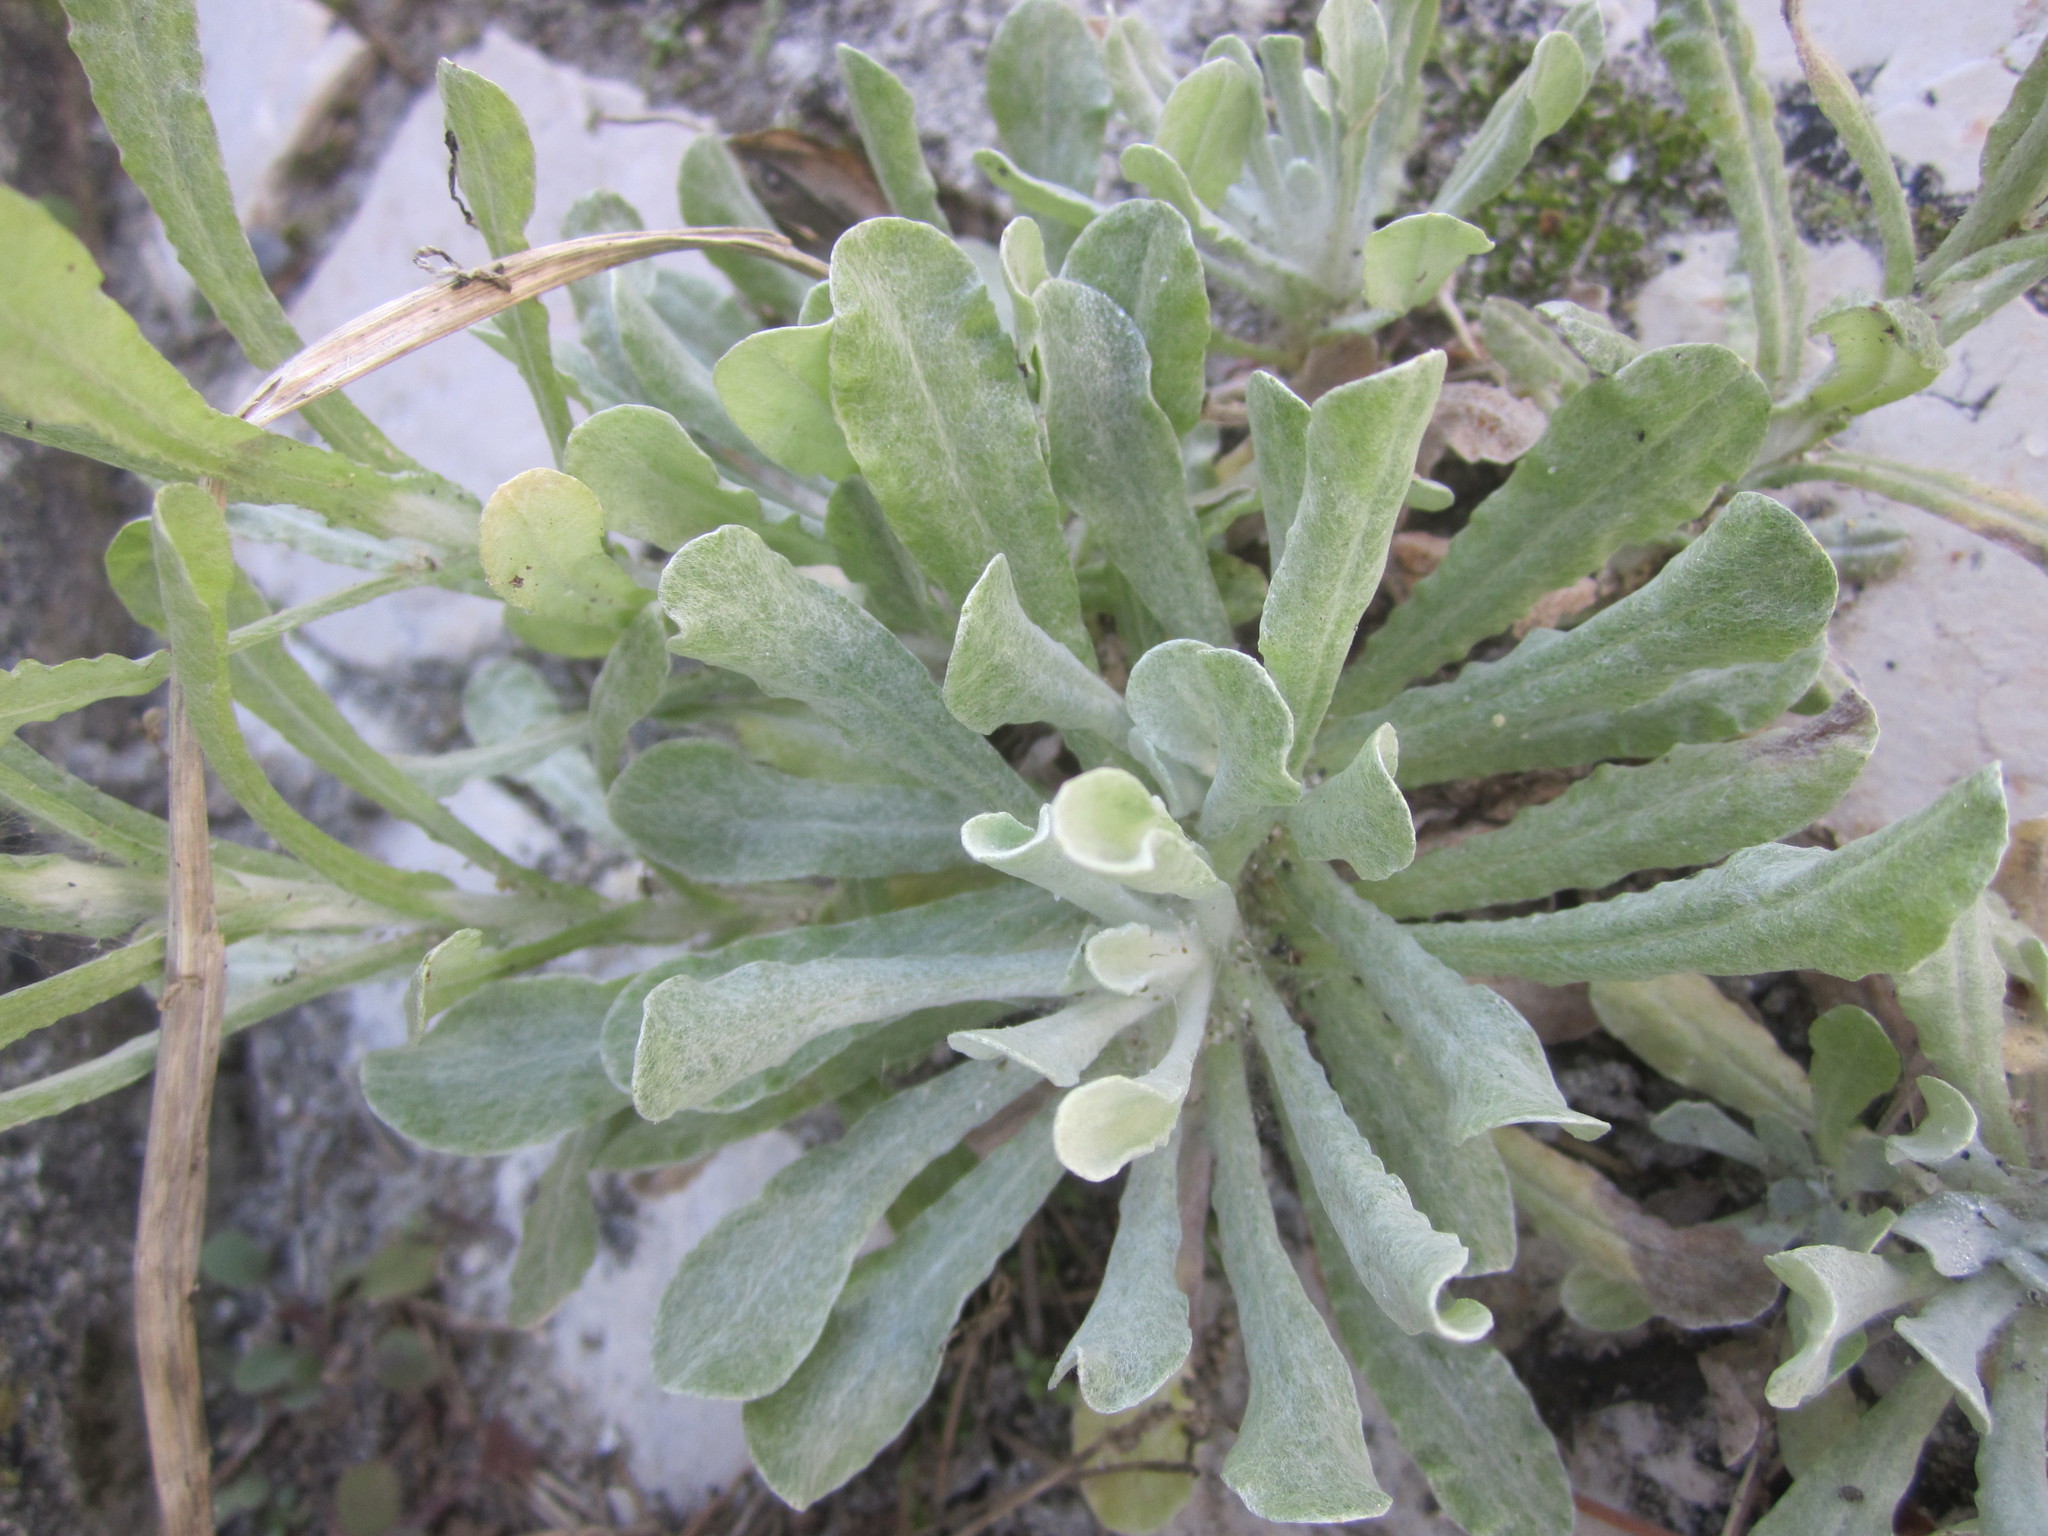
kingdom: Plantae
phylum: Tracheophyta
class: Magnoliopsida
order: Asterales
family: Asteraceae
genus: Helichrysum
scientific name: Helichrysum luteoalbum
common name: Daisy
